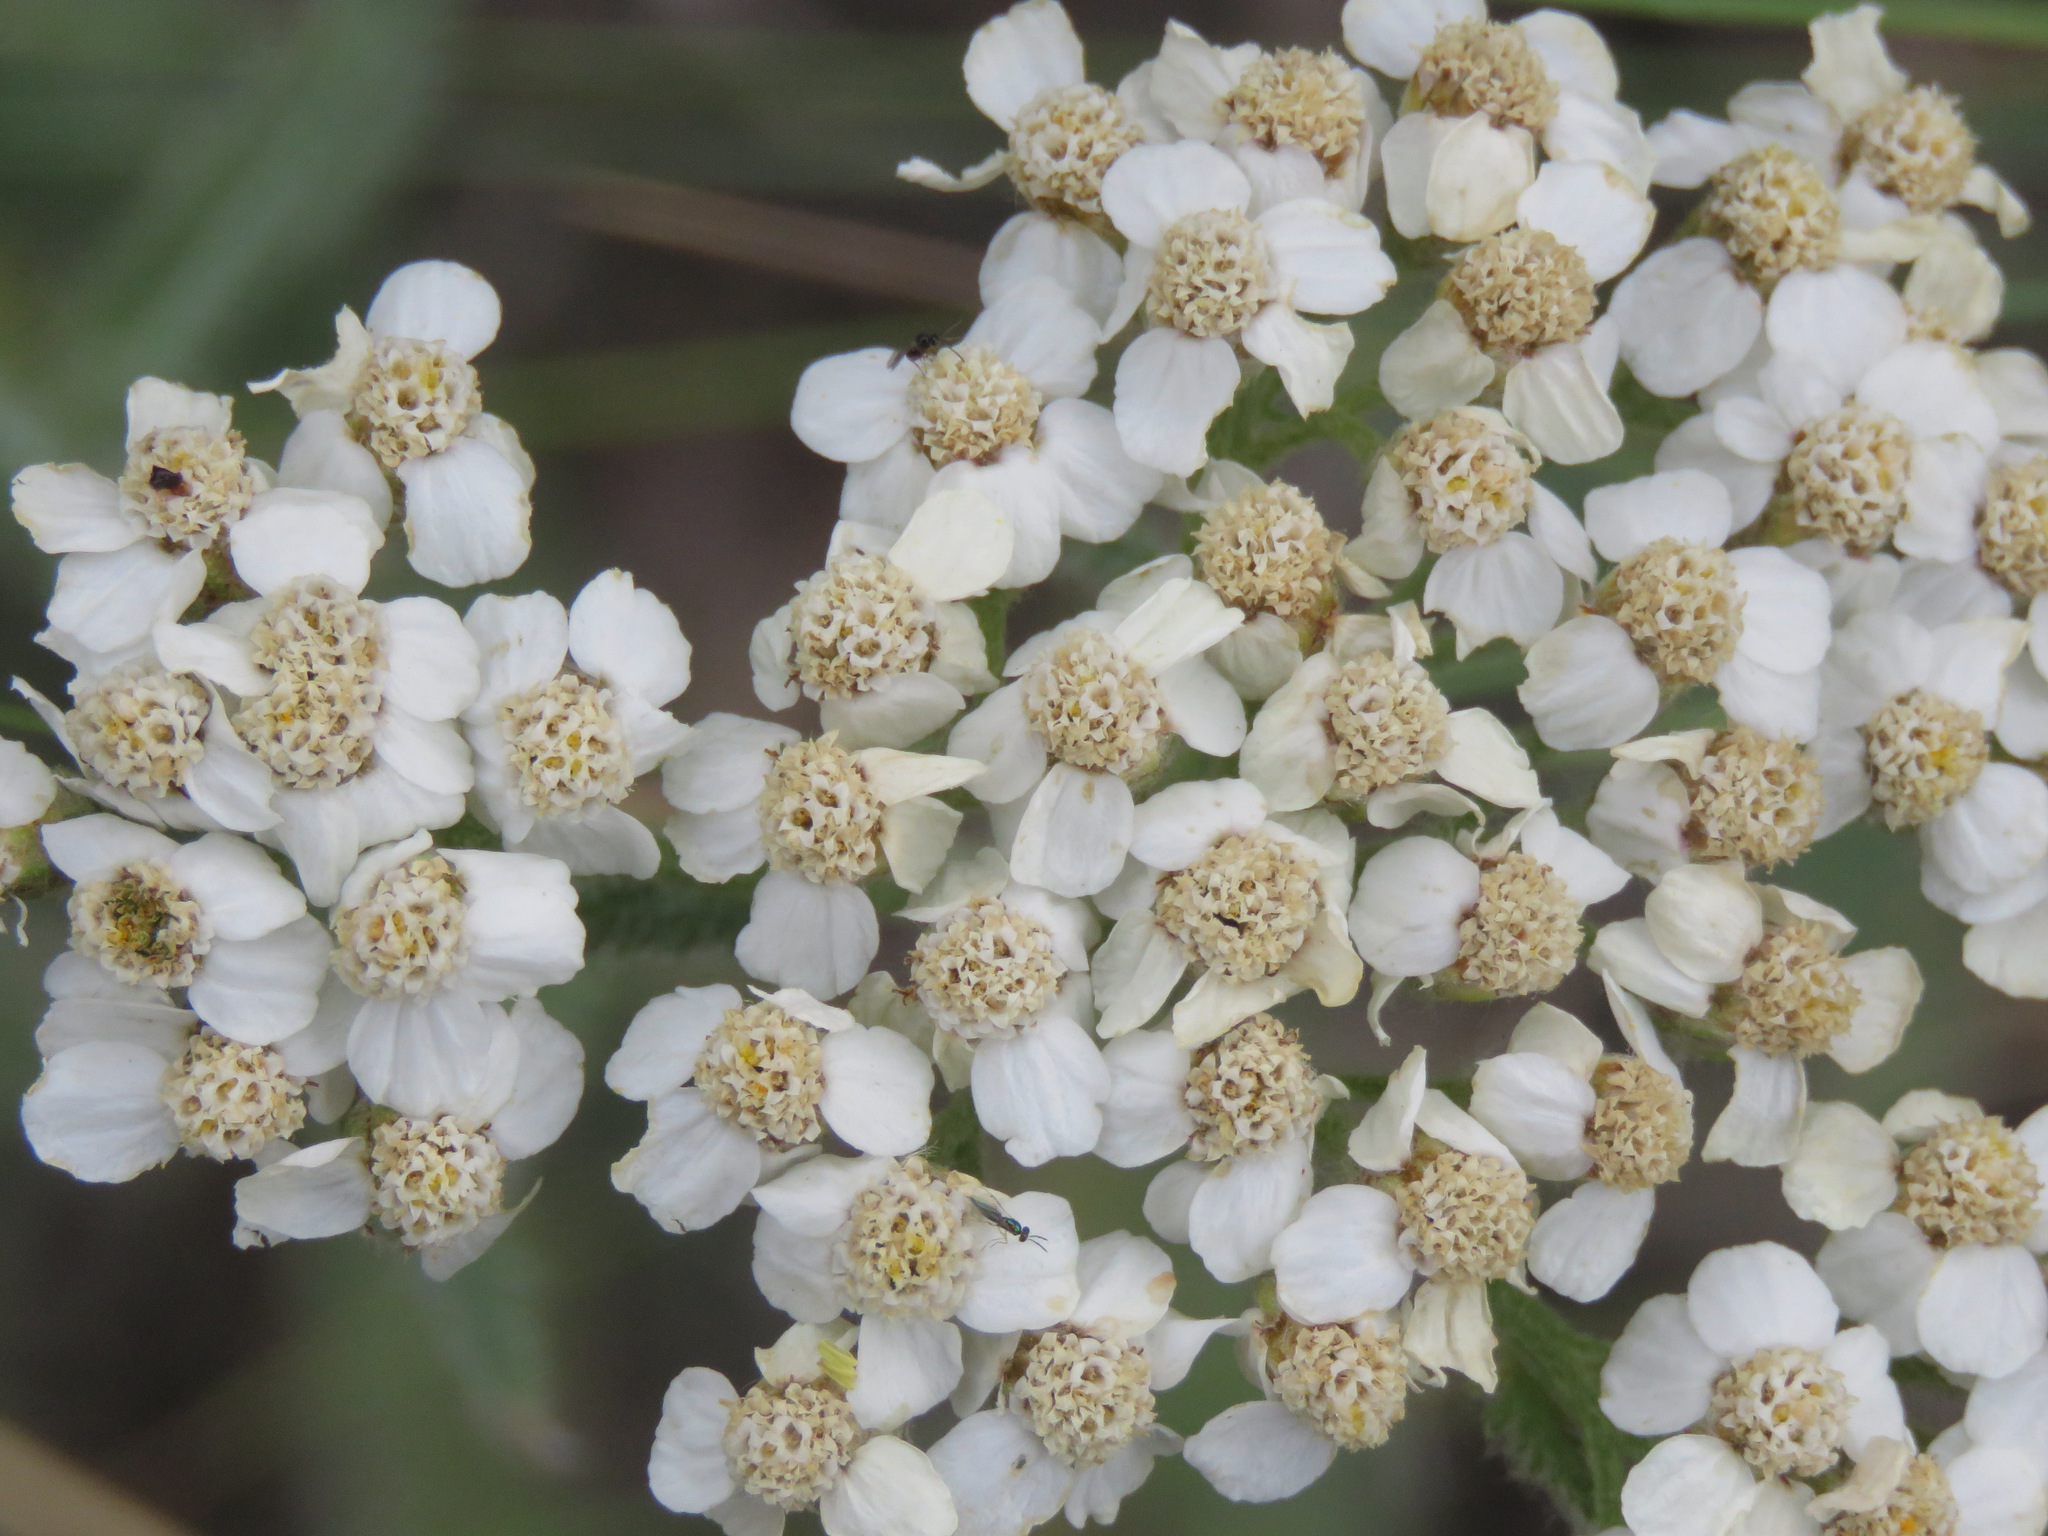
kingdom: Plantae
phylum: Tracheophyta
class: Magnoliopsida
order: Asterales
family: Asteraceae
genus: Achillea
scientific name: Achillea millefolium
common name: Yarrow
